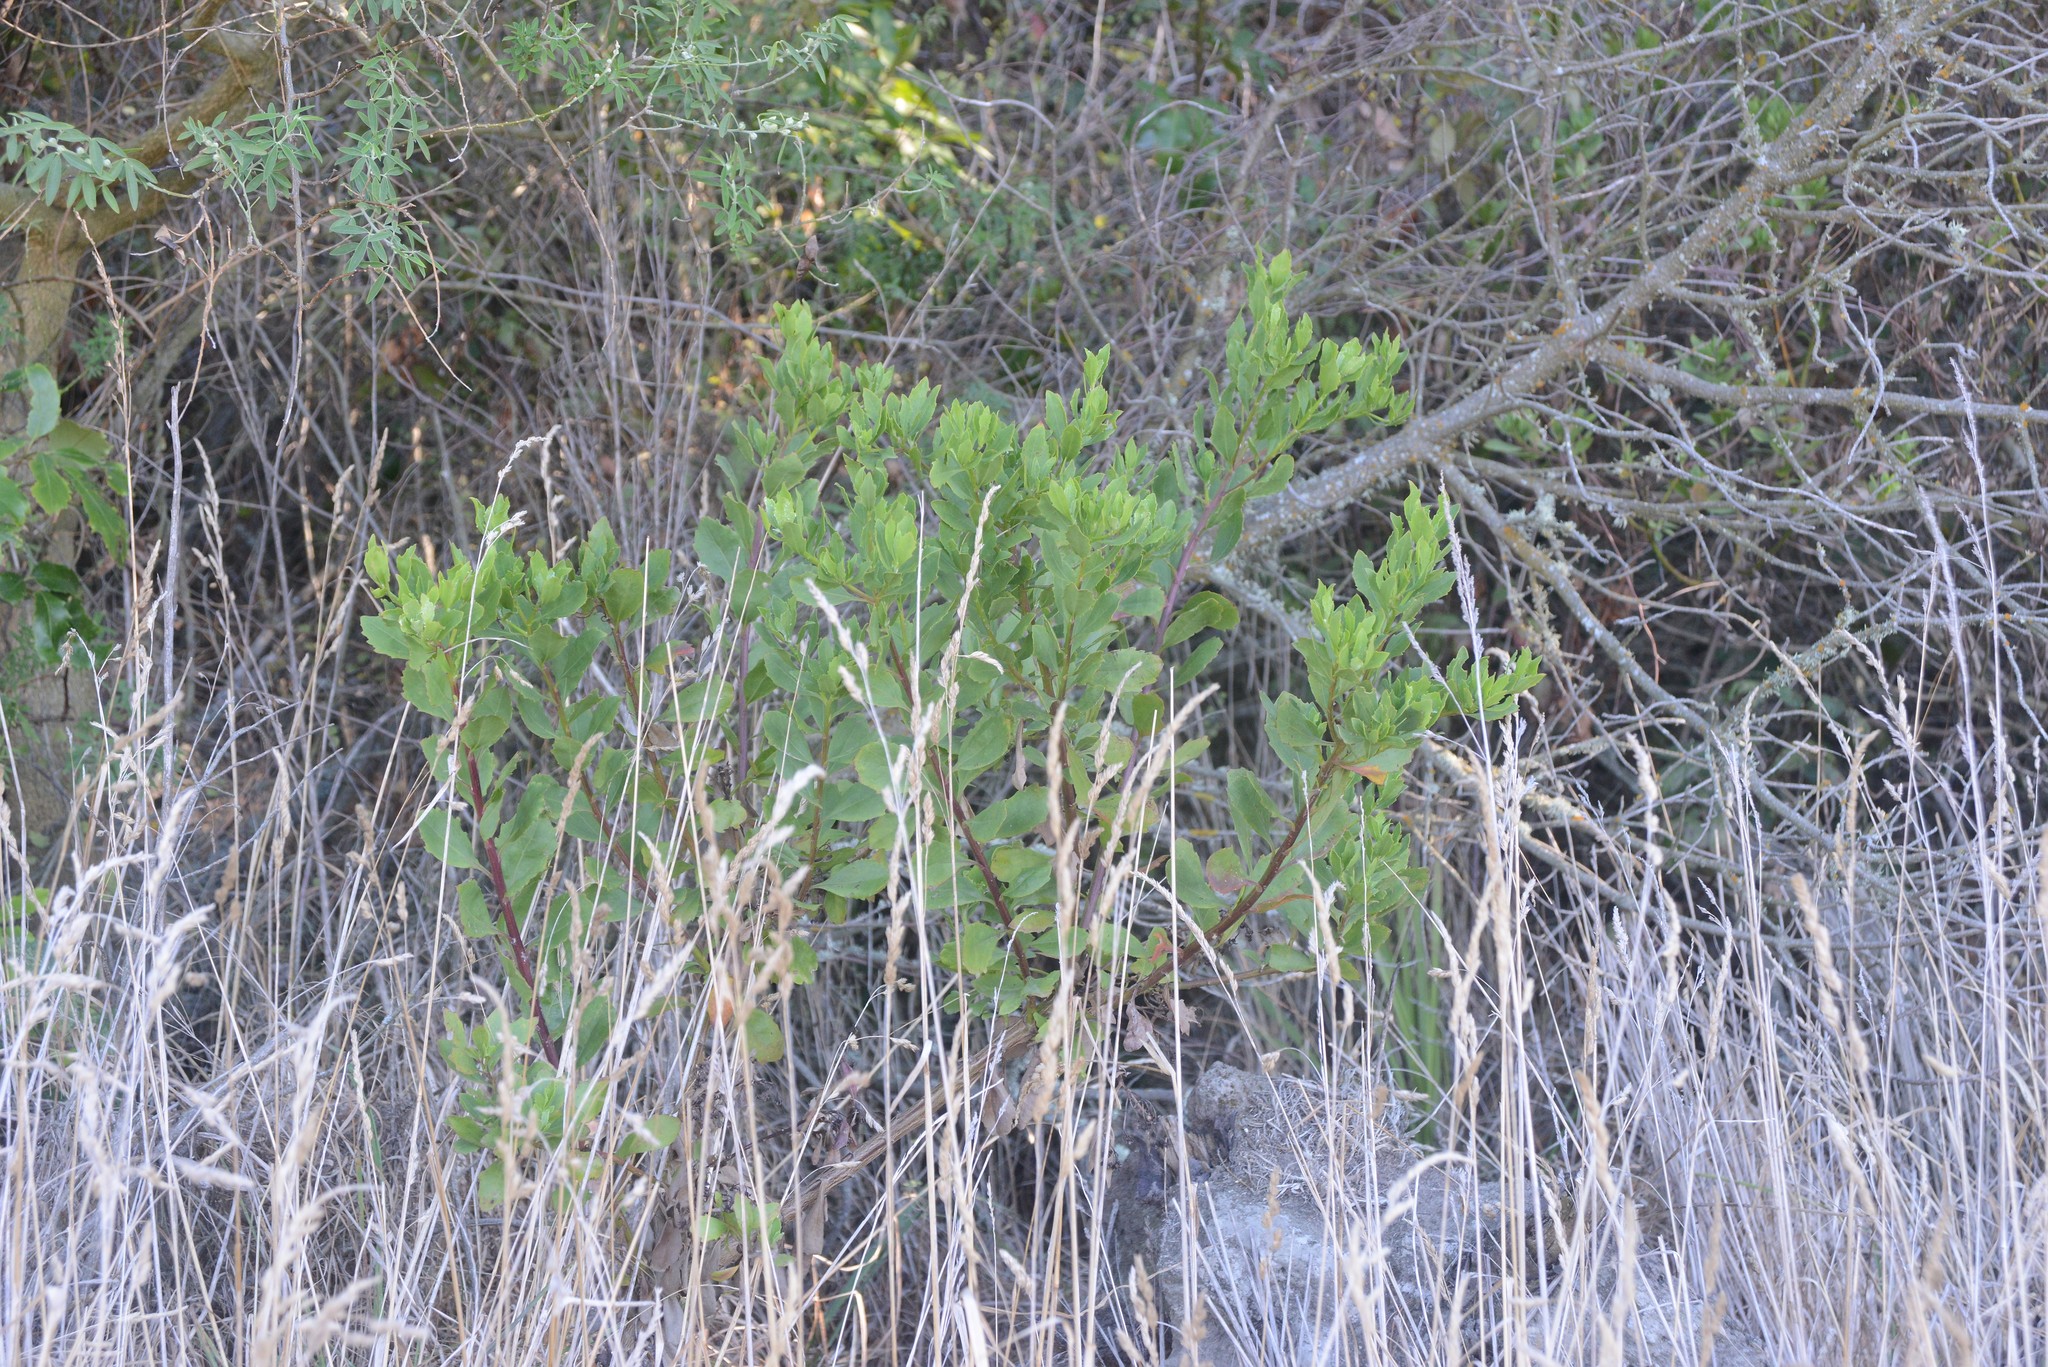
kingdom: Plantae
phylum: Tracheophyta
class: Magnoliopsida
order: Asterales
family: Asteraceae
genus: Osteospermum
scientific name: Osteospermum moniliferum
